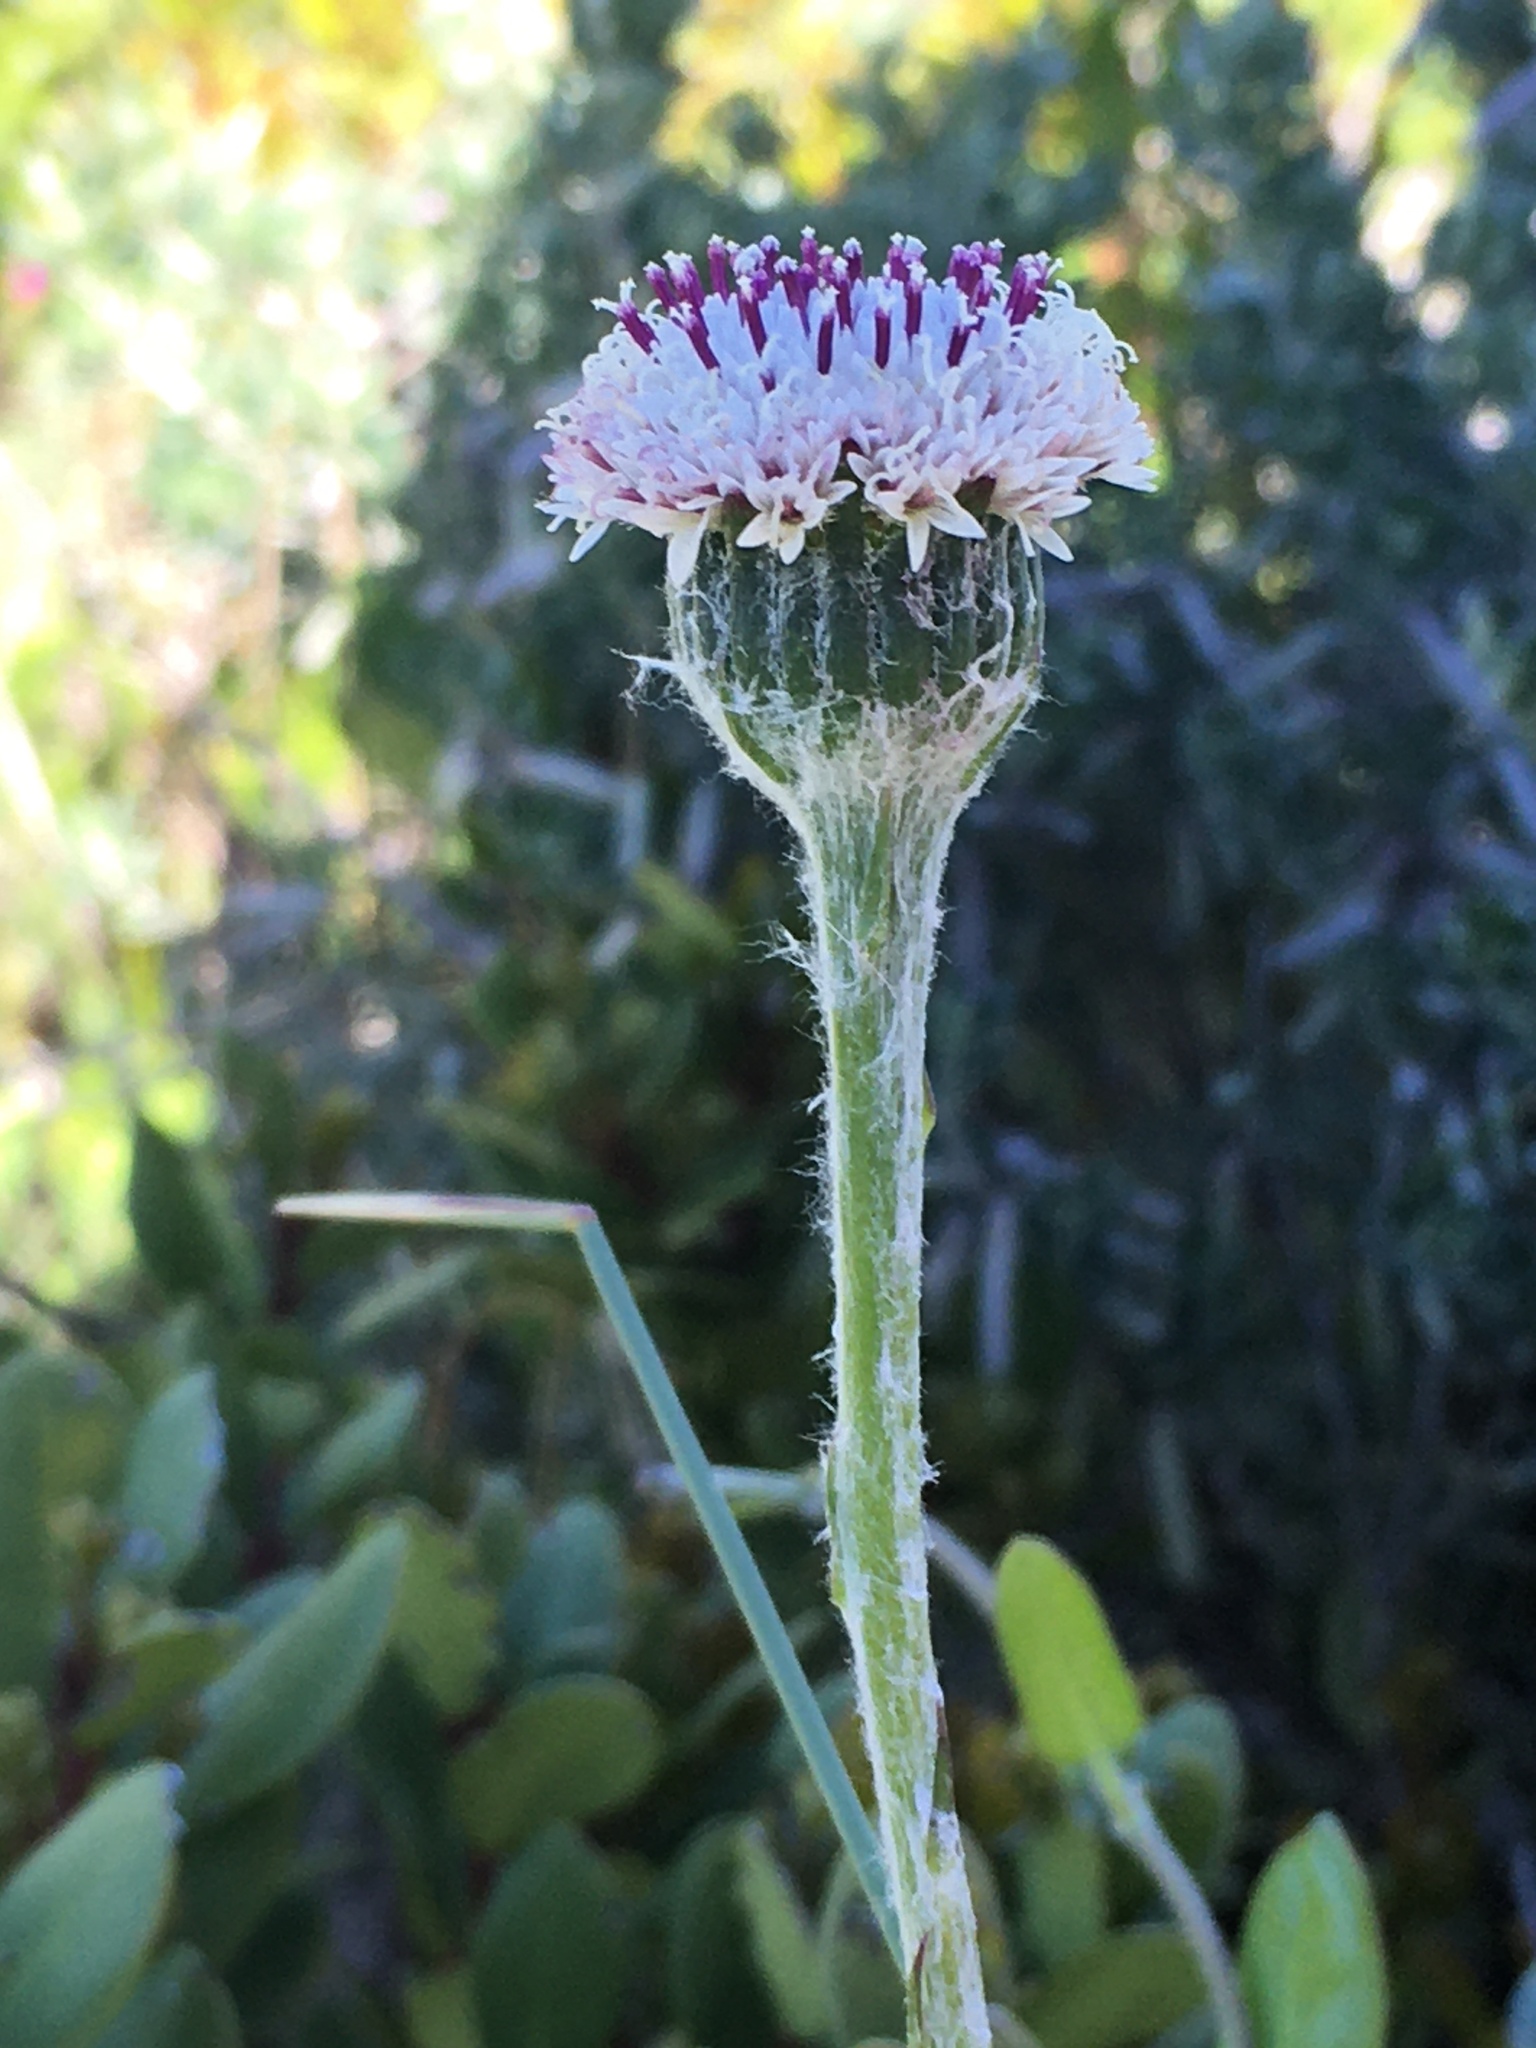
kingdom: Plantae
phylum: Tracheophyta
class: Magnoliopsida
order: Asterales
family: Asteraceae
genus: Bolandia
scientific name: Bolandia elongata
